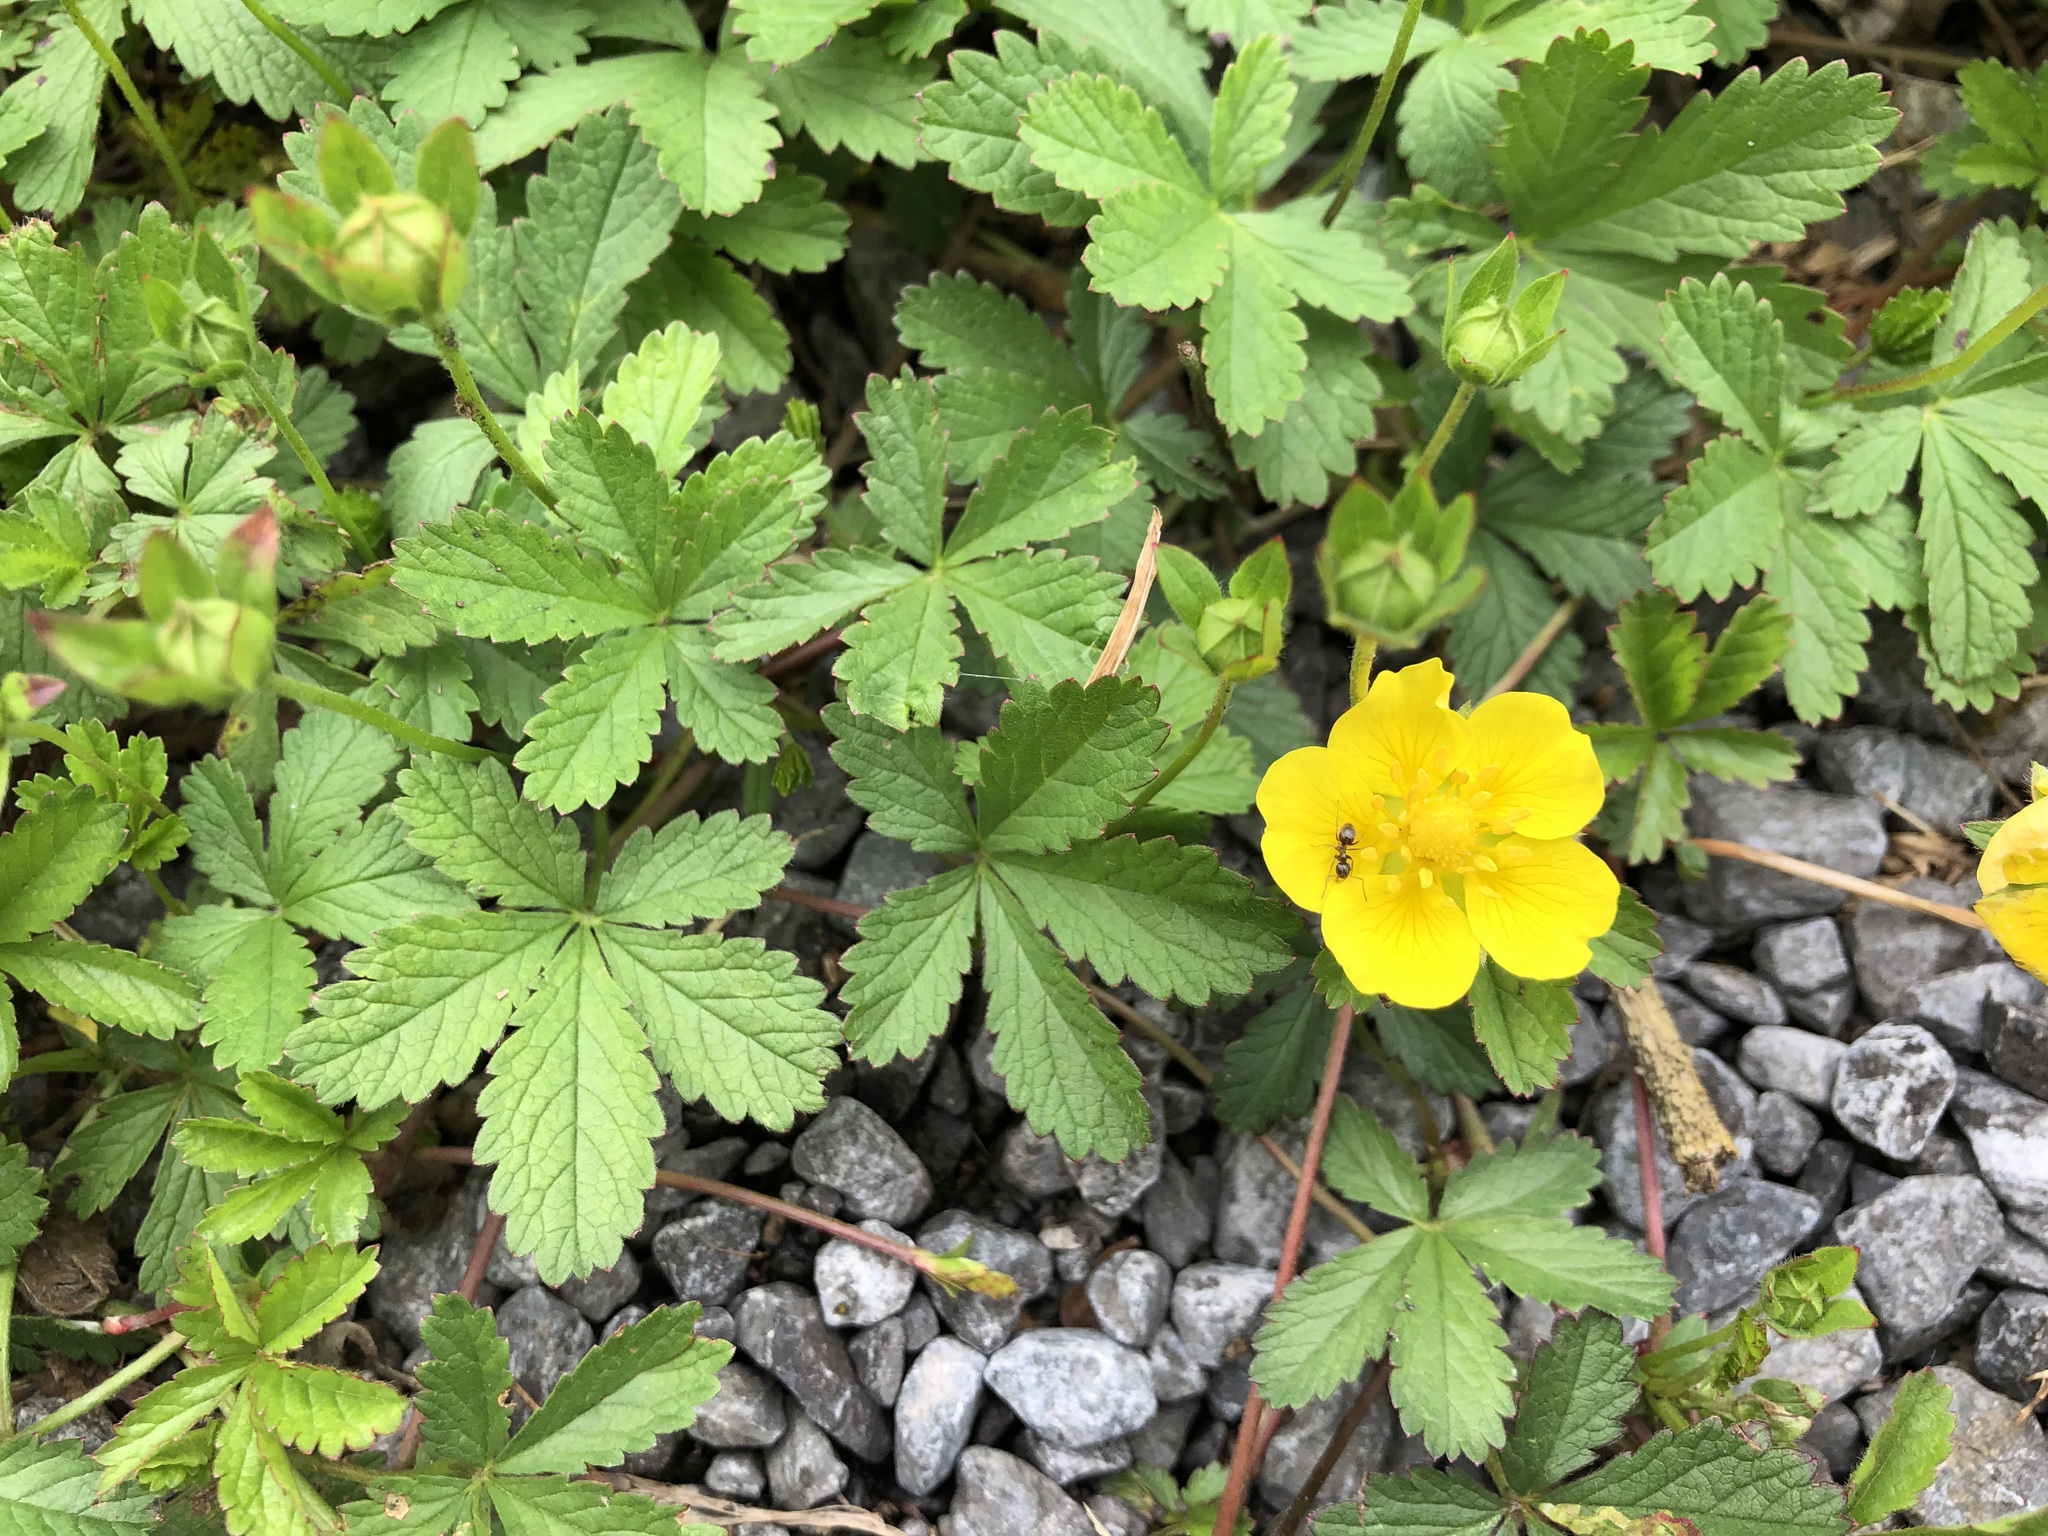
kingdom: Plantae
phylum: Tracheophyta
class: Magnoliopsida
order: Rosales
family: Rosaceae
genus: Potentilla
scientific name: Potentilla reptans
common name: Creeping cinquefoil
